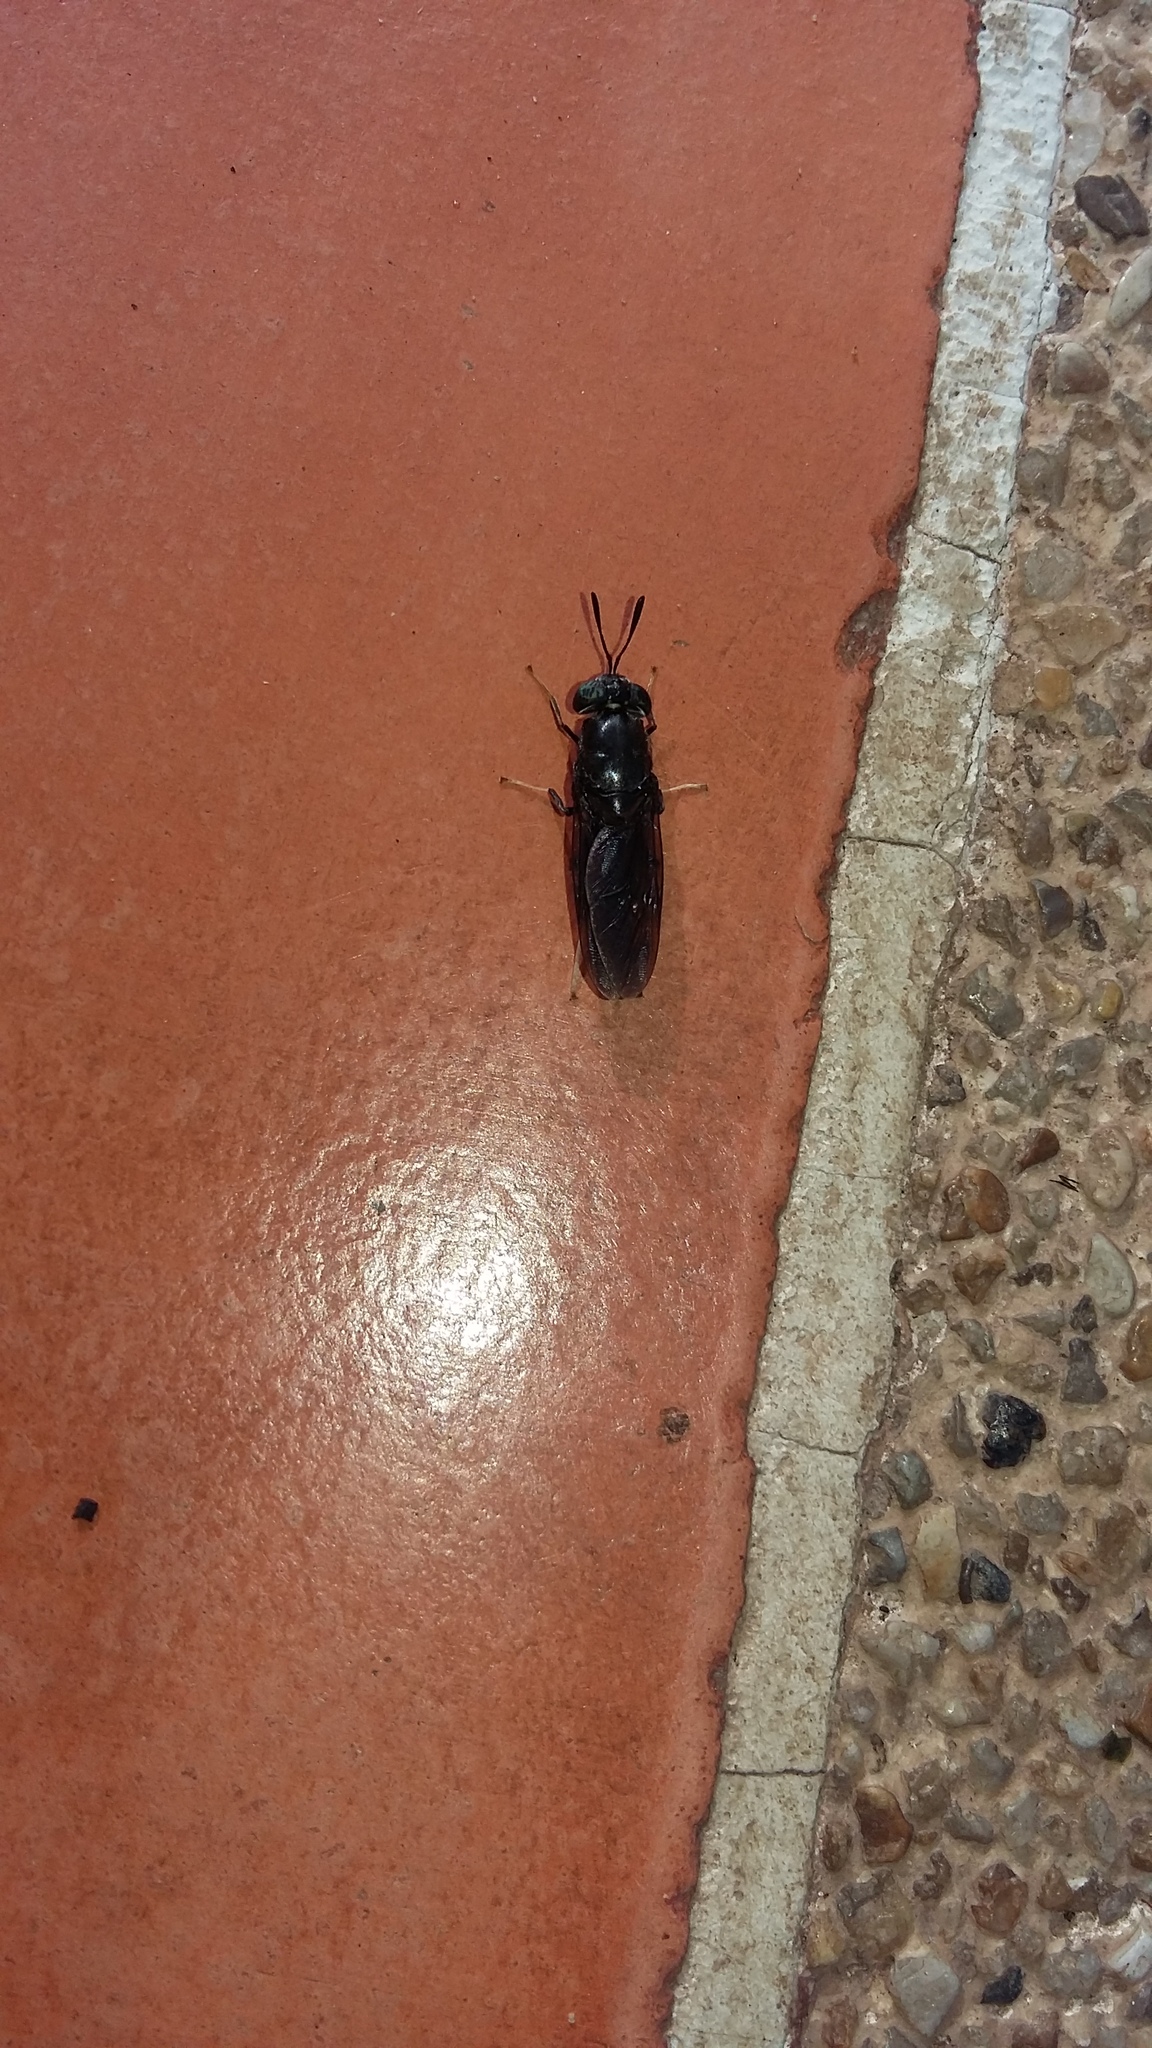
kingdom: Animalia
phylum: Arthropoda
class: Insecta
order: Diptera
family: Stratiomyidae
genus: Hermetia
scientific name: Hermetia illucens
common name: Black soldier fly
